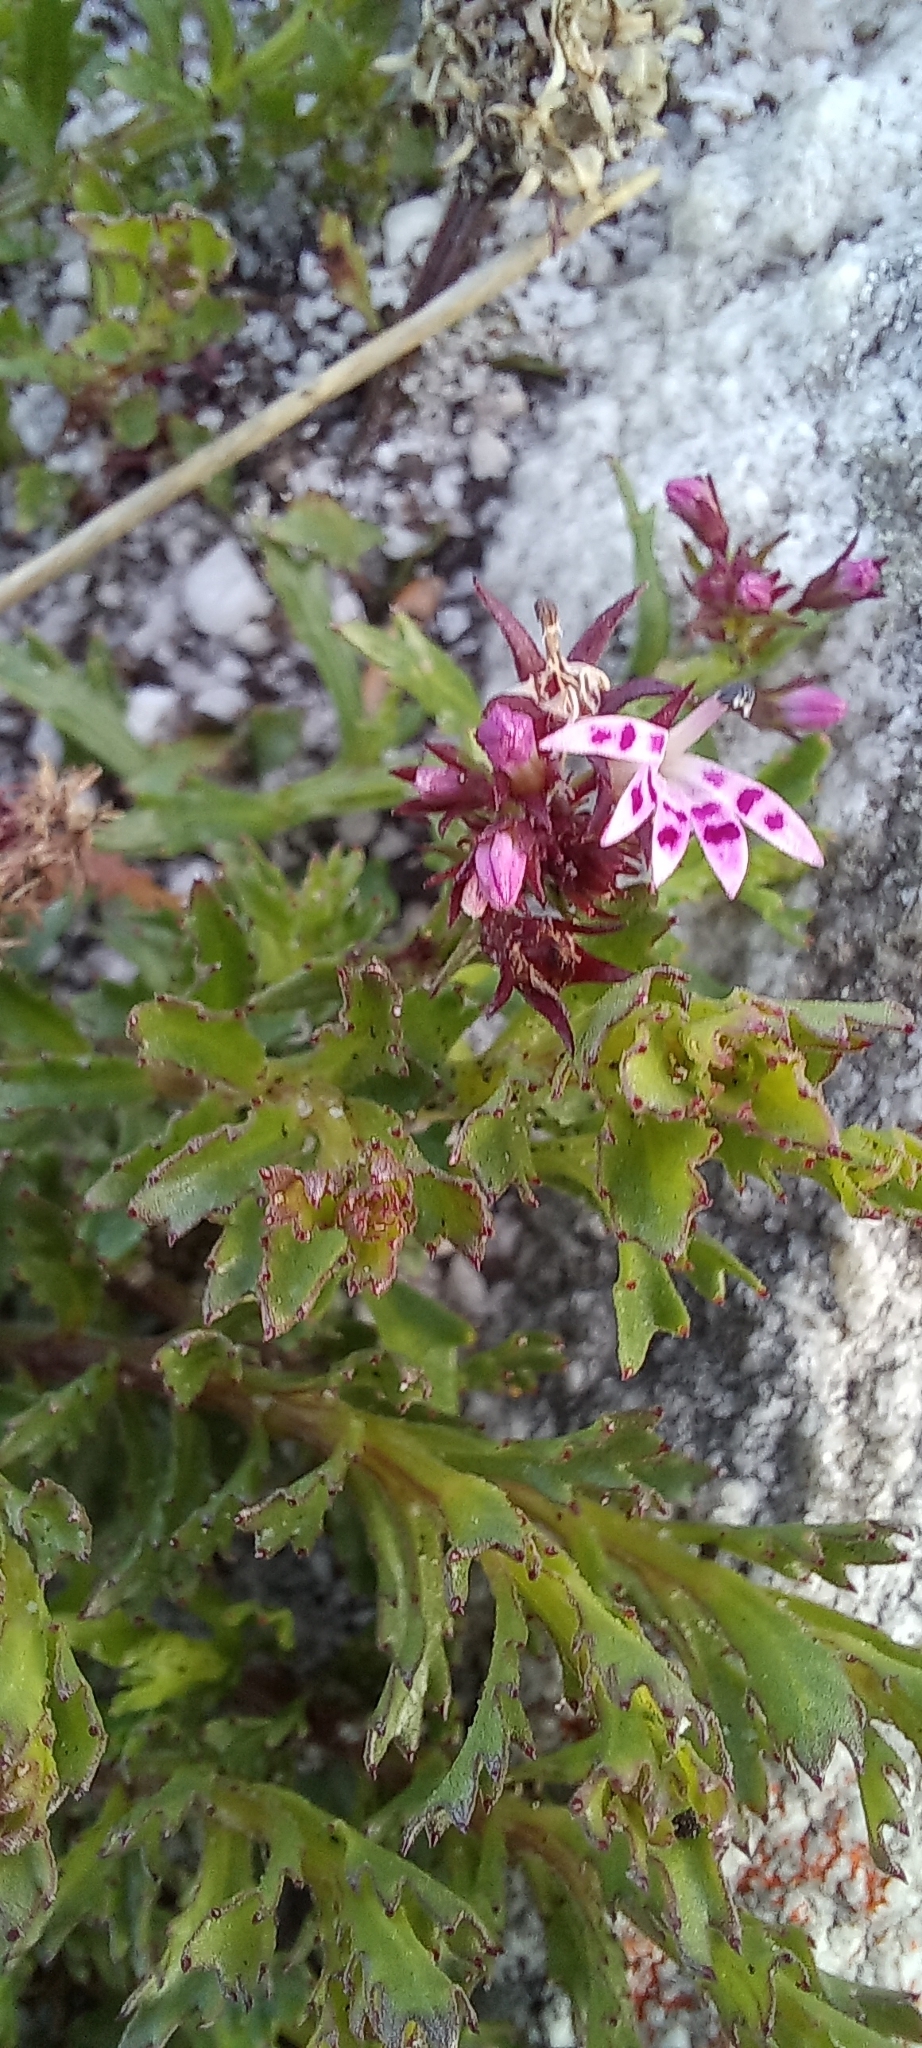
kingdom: Plantae
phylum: Tracheophyta
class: Magnoliopsida
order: Asterales
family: Campanulaceae
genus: Lobelia
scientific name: Lobelia jasionoides
